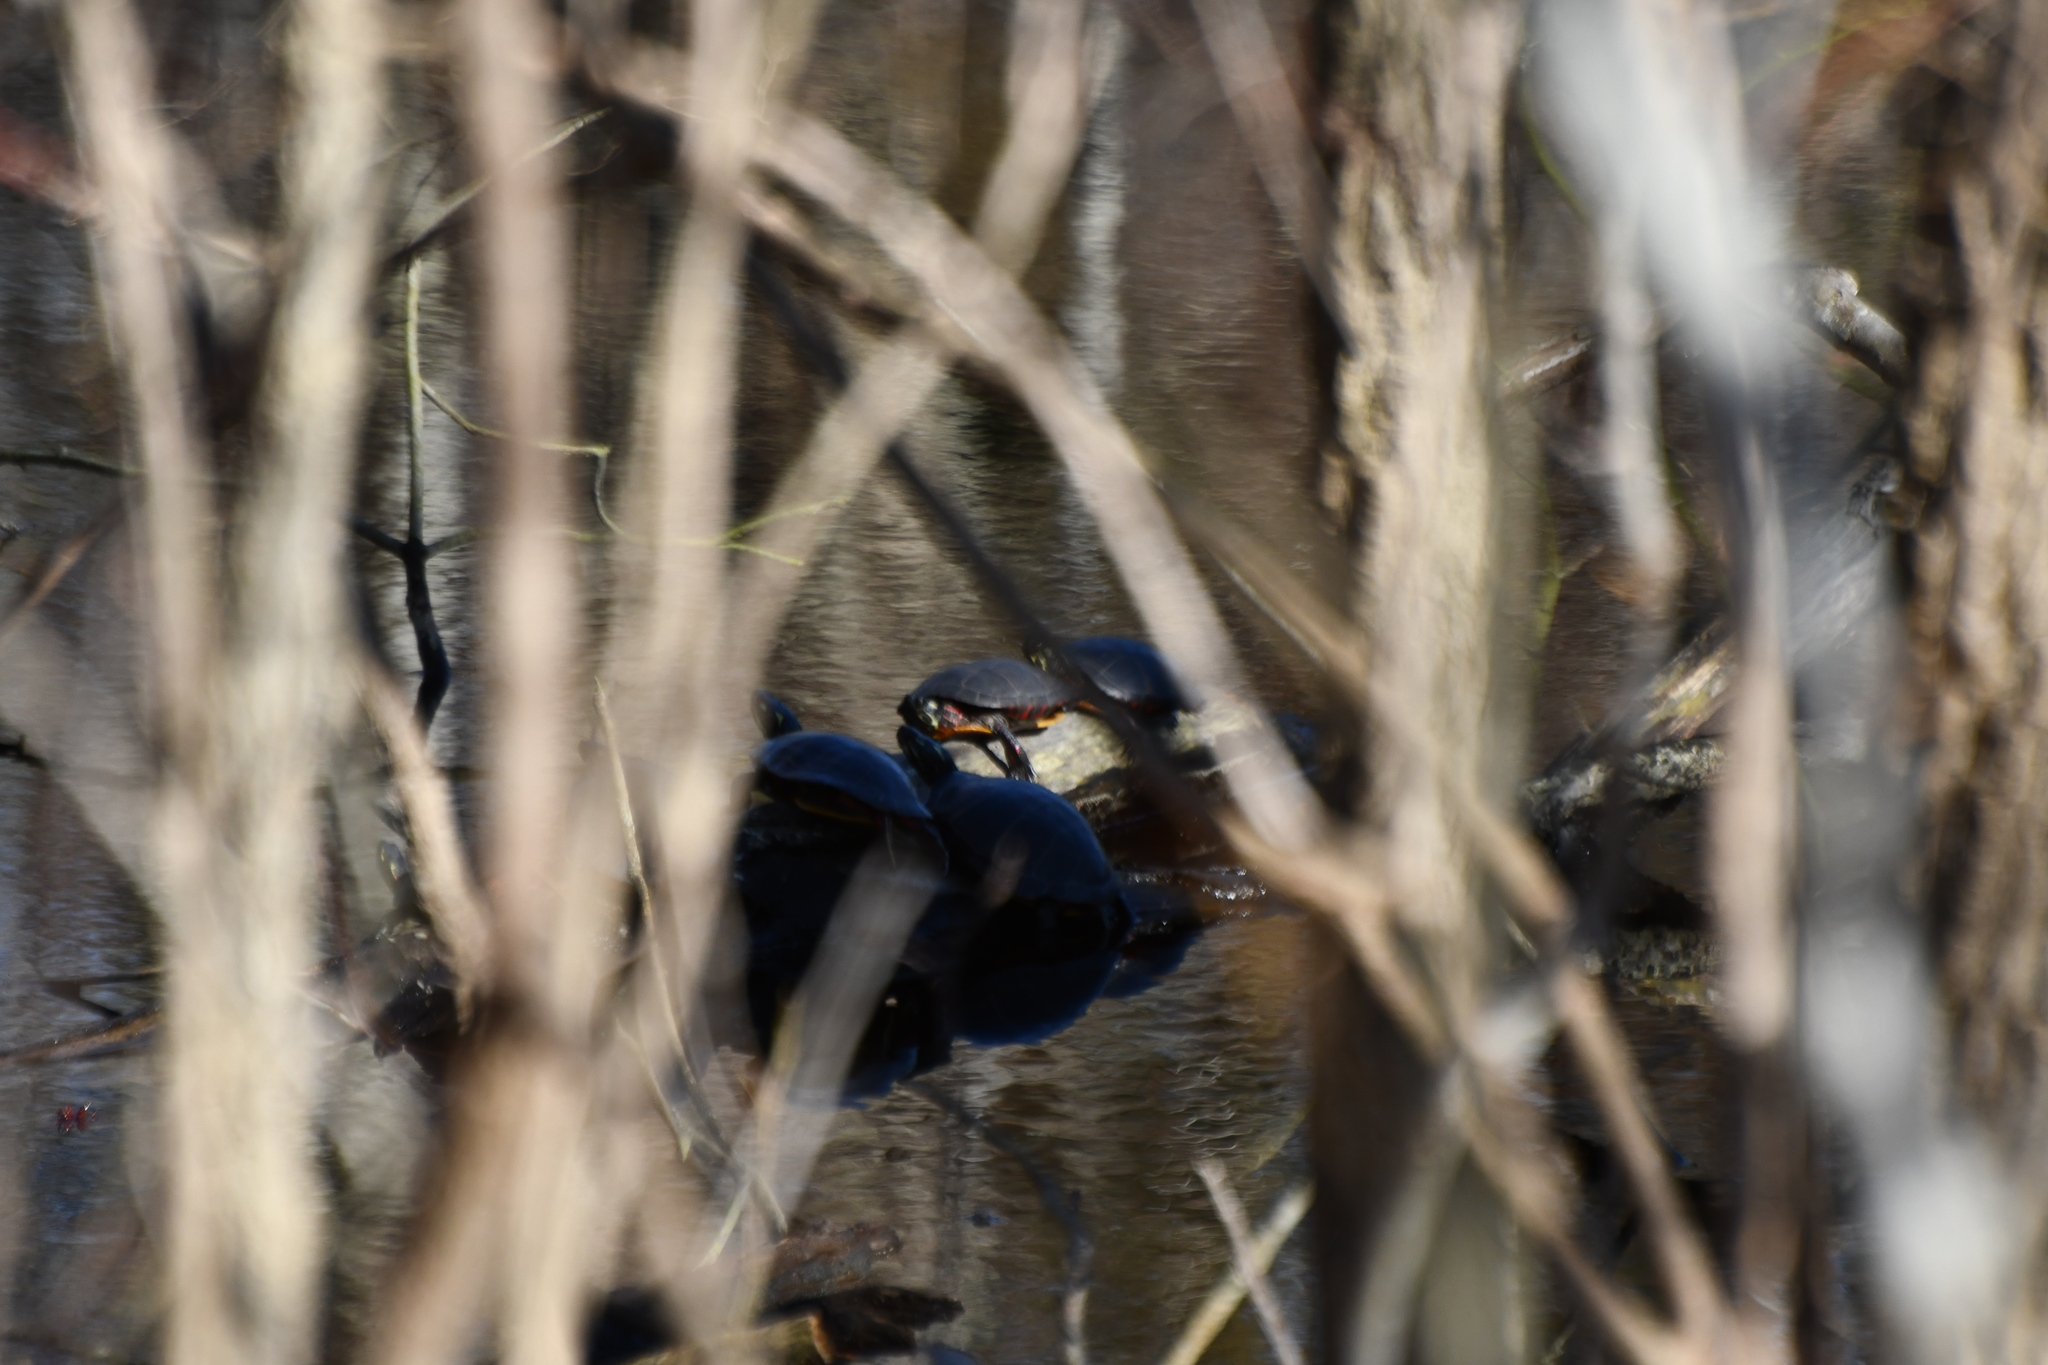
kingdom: Animalia
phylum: Chordata
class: Testudines
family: Emydidae
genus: Chrysemys
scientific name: Chrysemys picta
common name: Painted turtle
